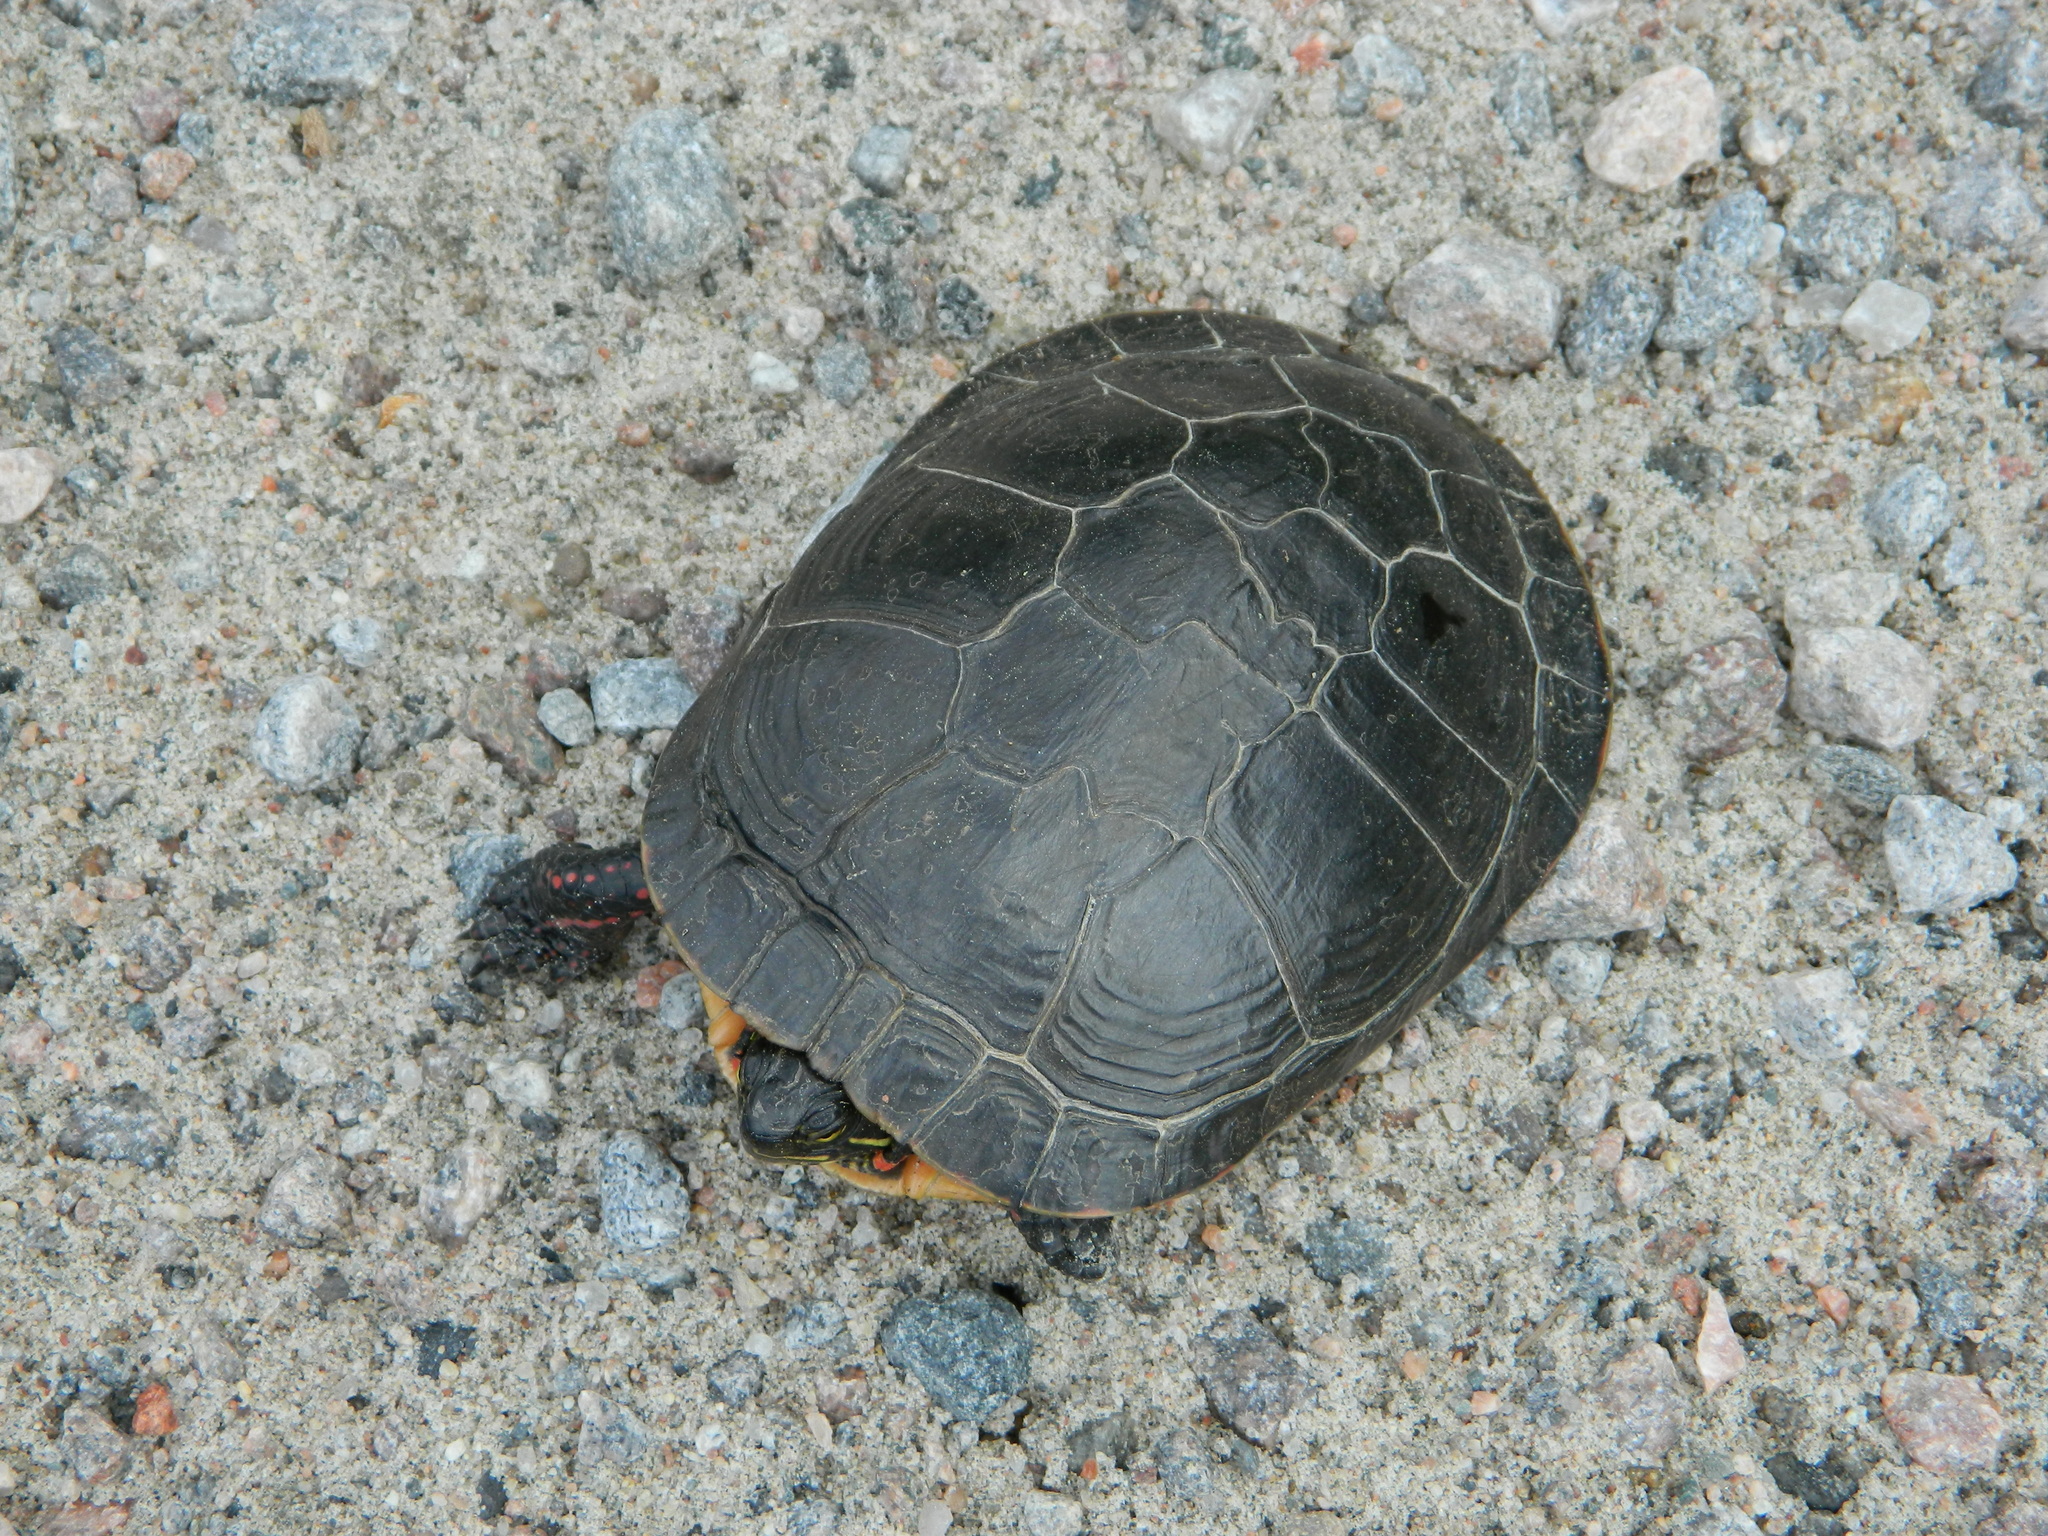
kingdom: Animalia
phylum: Chordata
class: Testudines
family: Emydidae
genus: Chrysemys
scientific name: Chrysemys picta
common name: Painted turtle
